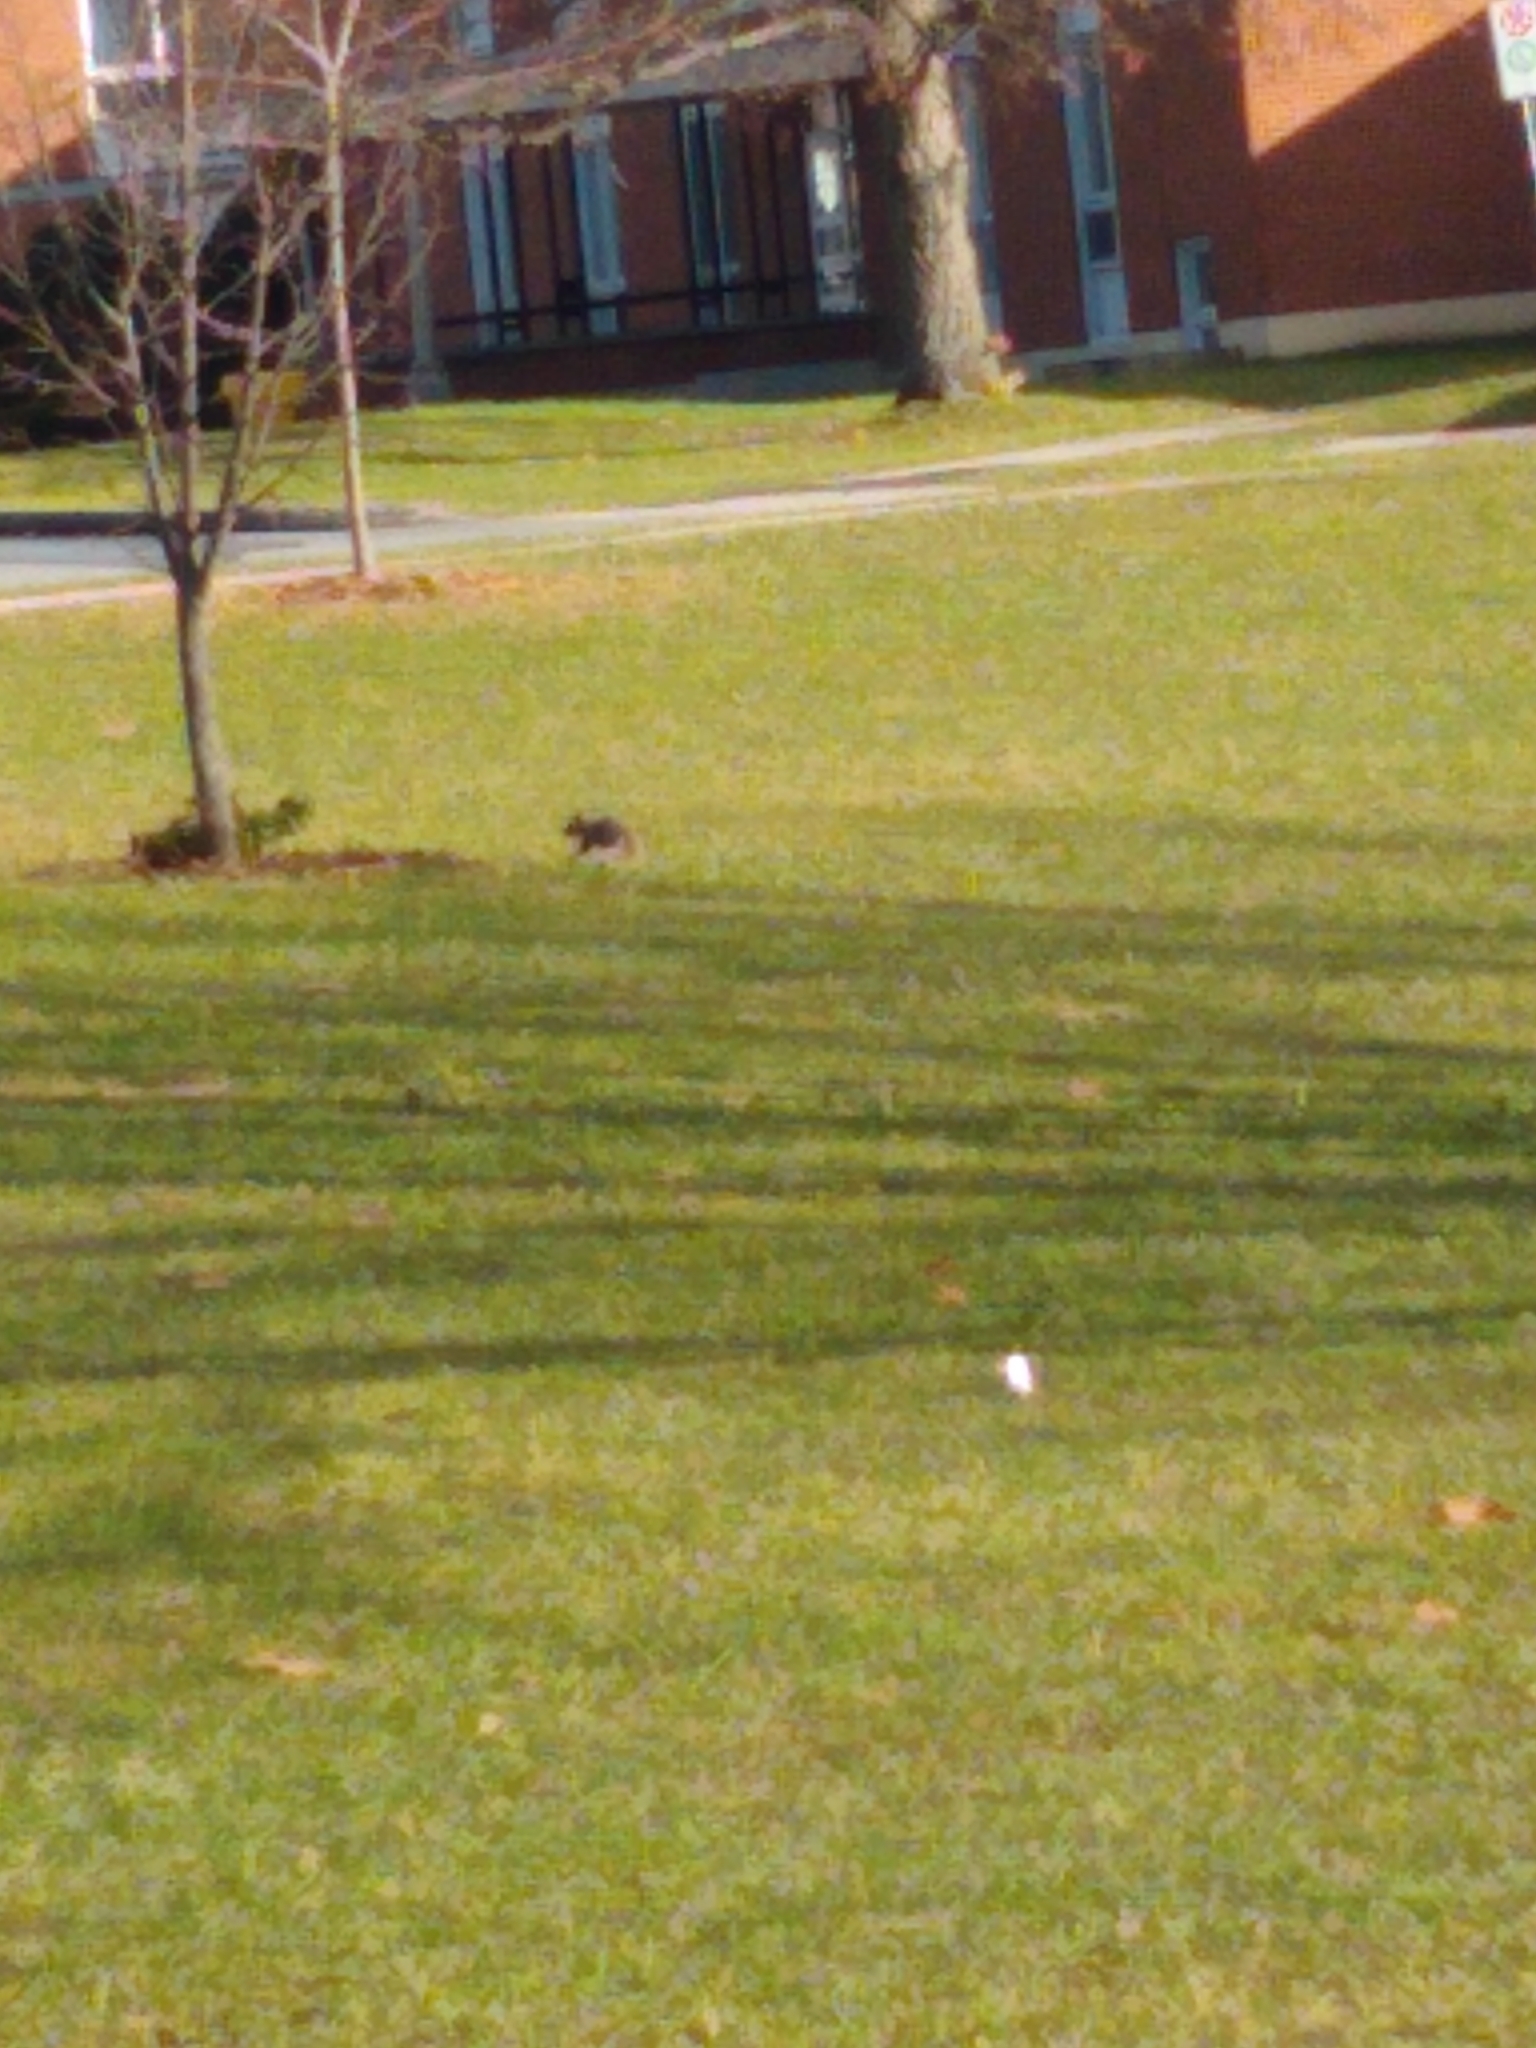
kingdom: Animalia
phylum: Chordata
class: Mammalia
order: Rodentia
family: Sciuridae
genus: Sciurus
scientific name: Sciurus carolinensis
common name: Eastern gray squirrel
